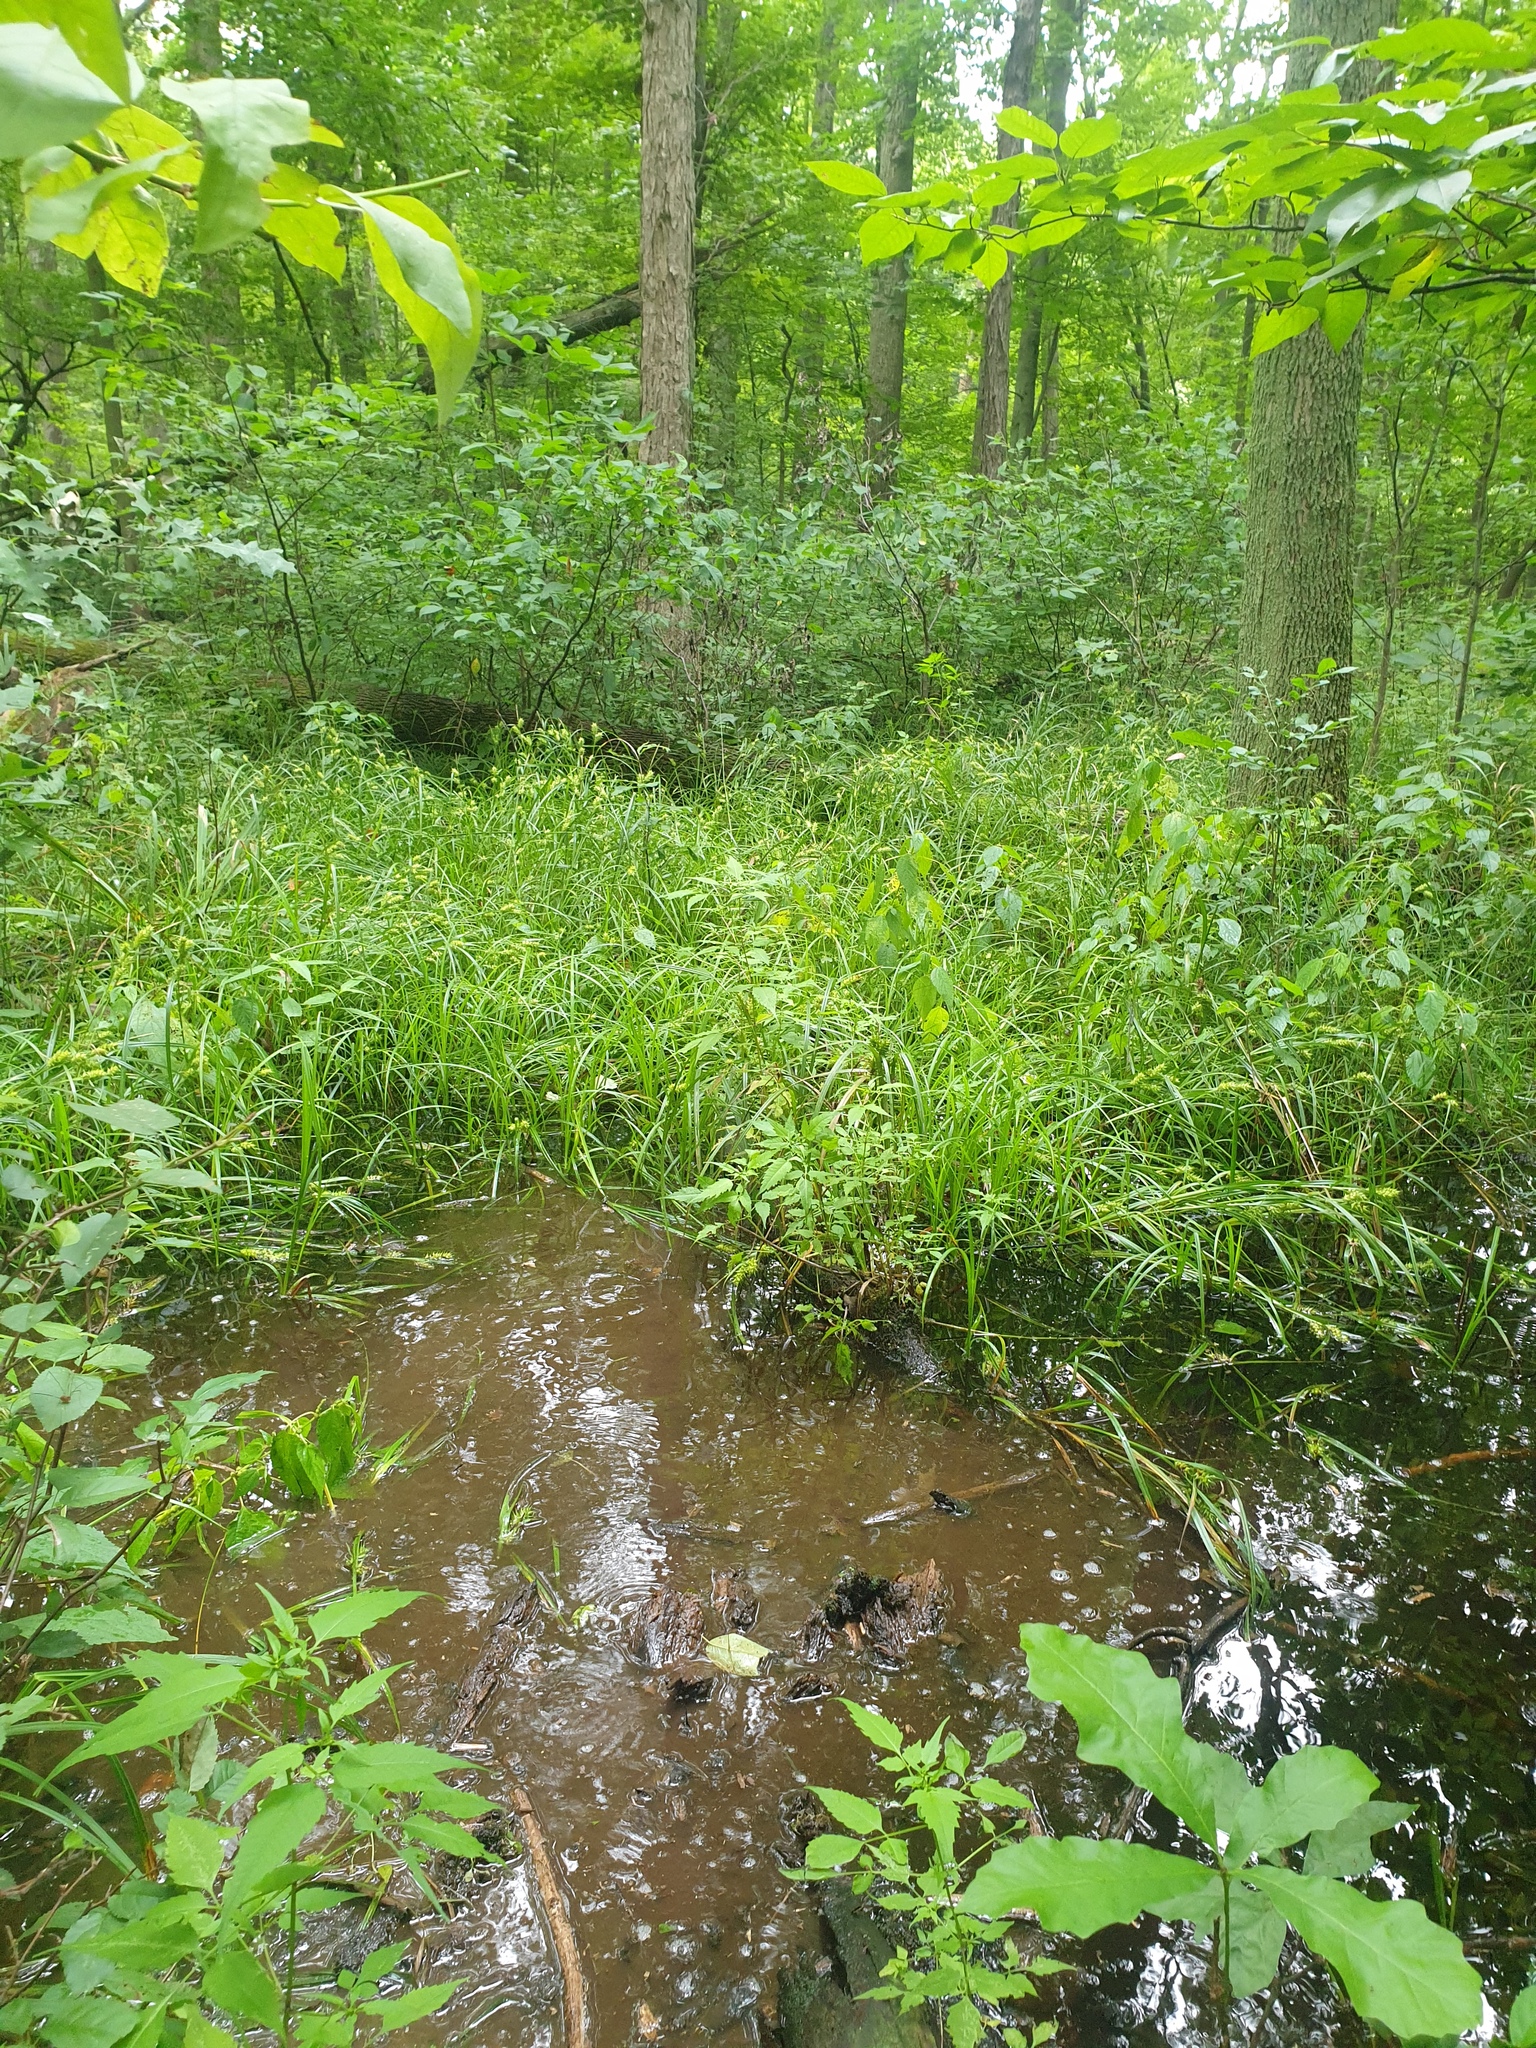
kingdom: Plantae
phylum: Tracheophyta
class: Liliopsida
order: Poales
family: Cyperaceae
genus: Carex
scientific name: Carex lupuliformis
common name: False hop sedge
